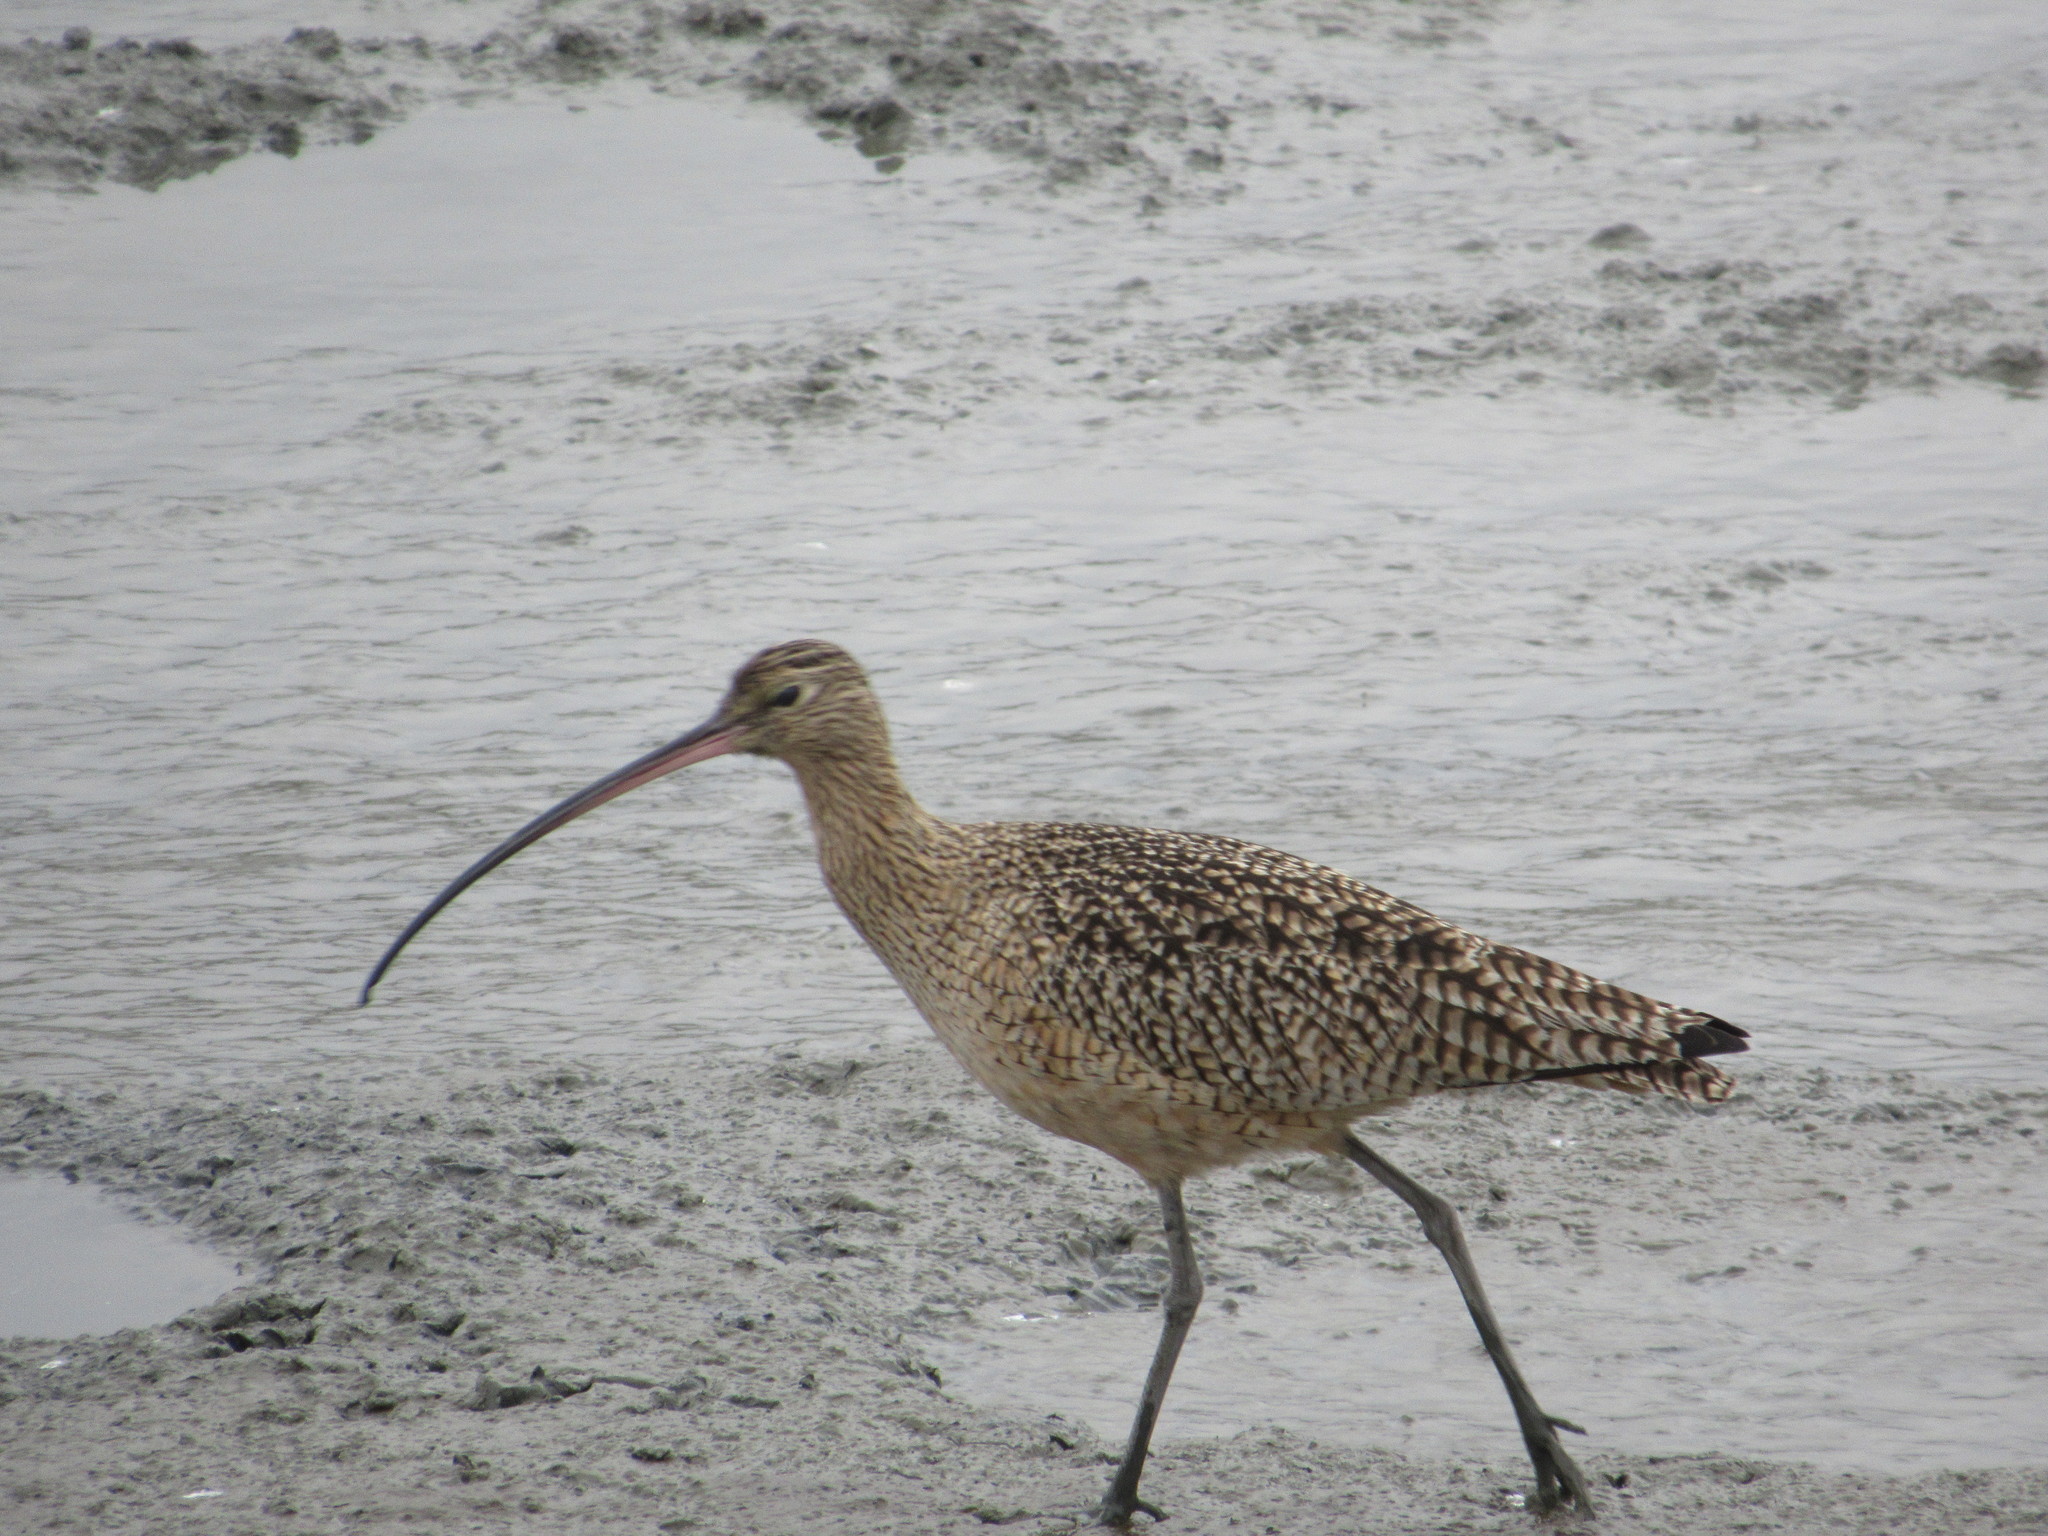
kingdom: Animalia
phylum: Chordata
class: Aves
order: Charadriiformes
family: Scolopacidae
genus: Numenius
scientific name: Numenius americanus
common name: Long-billed curlew
